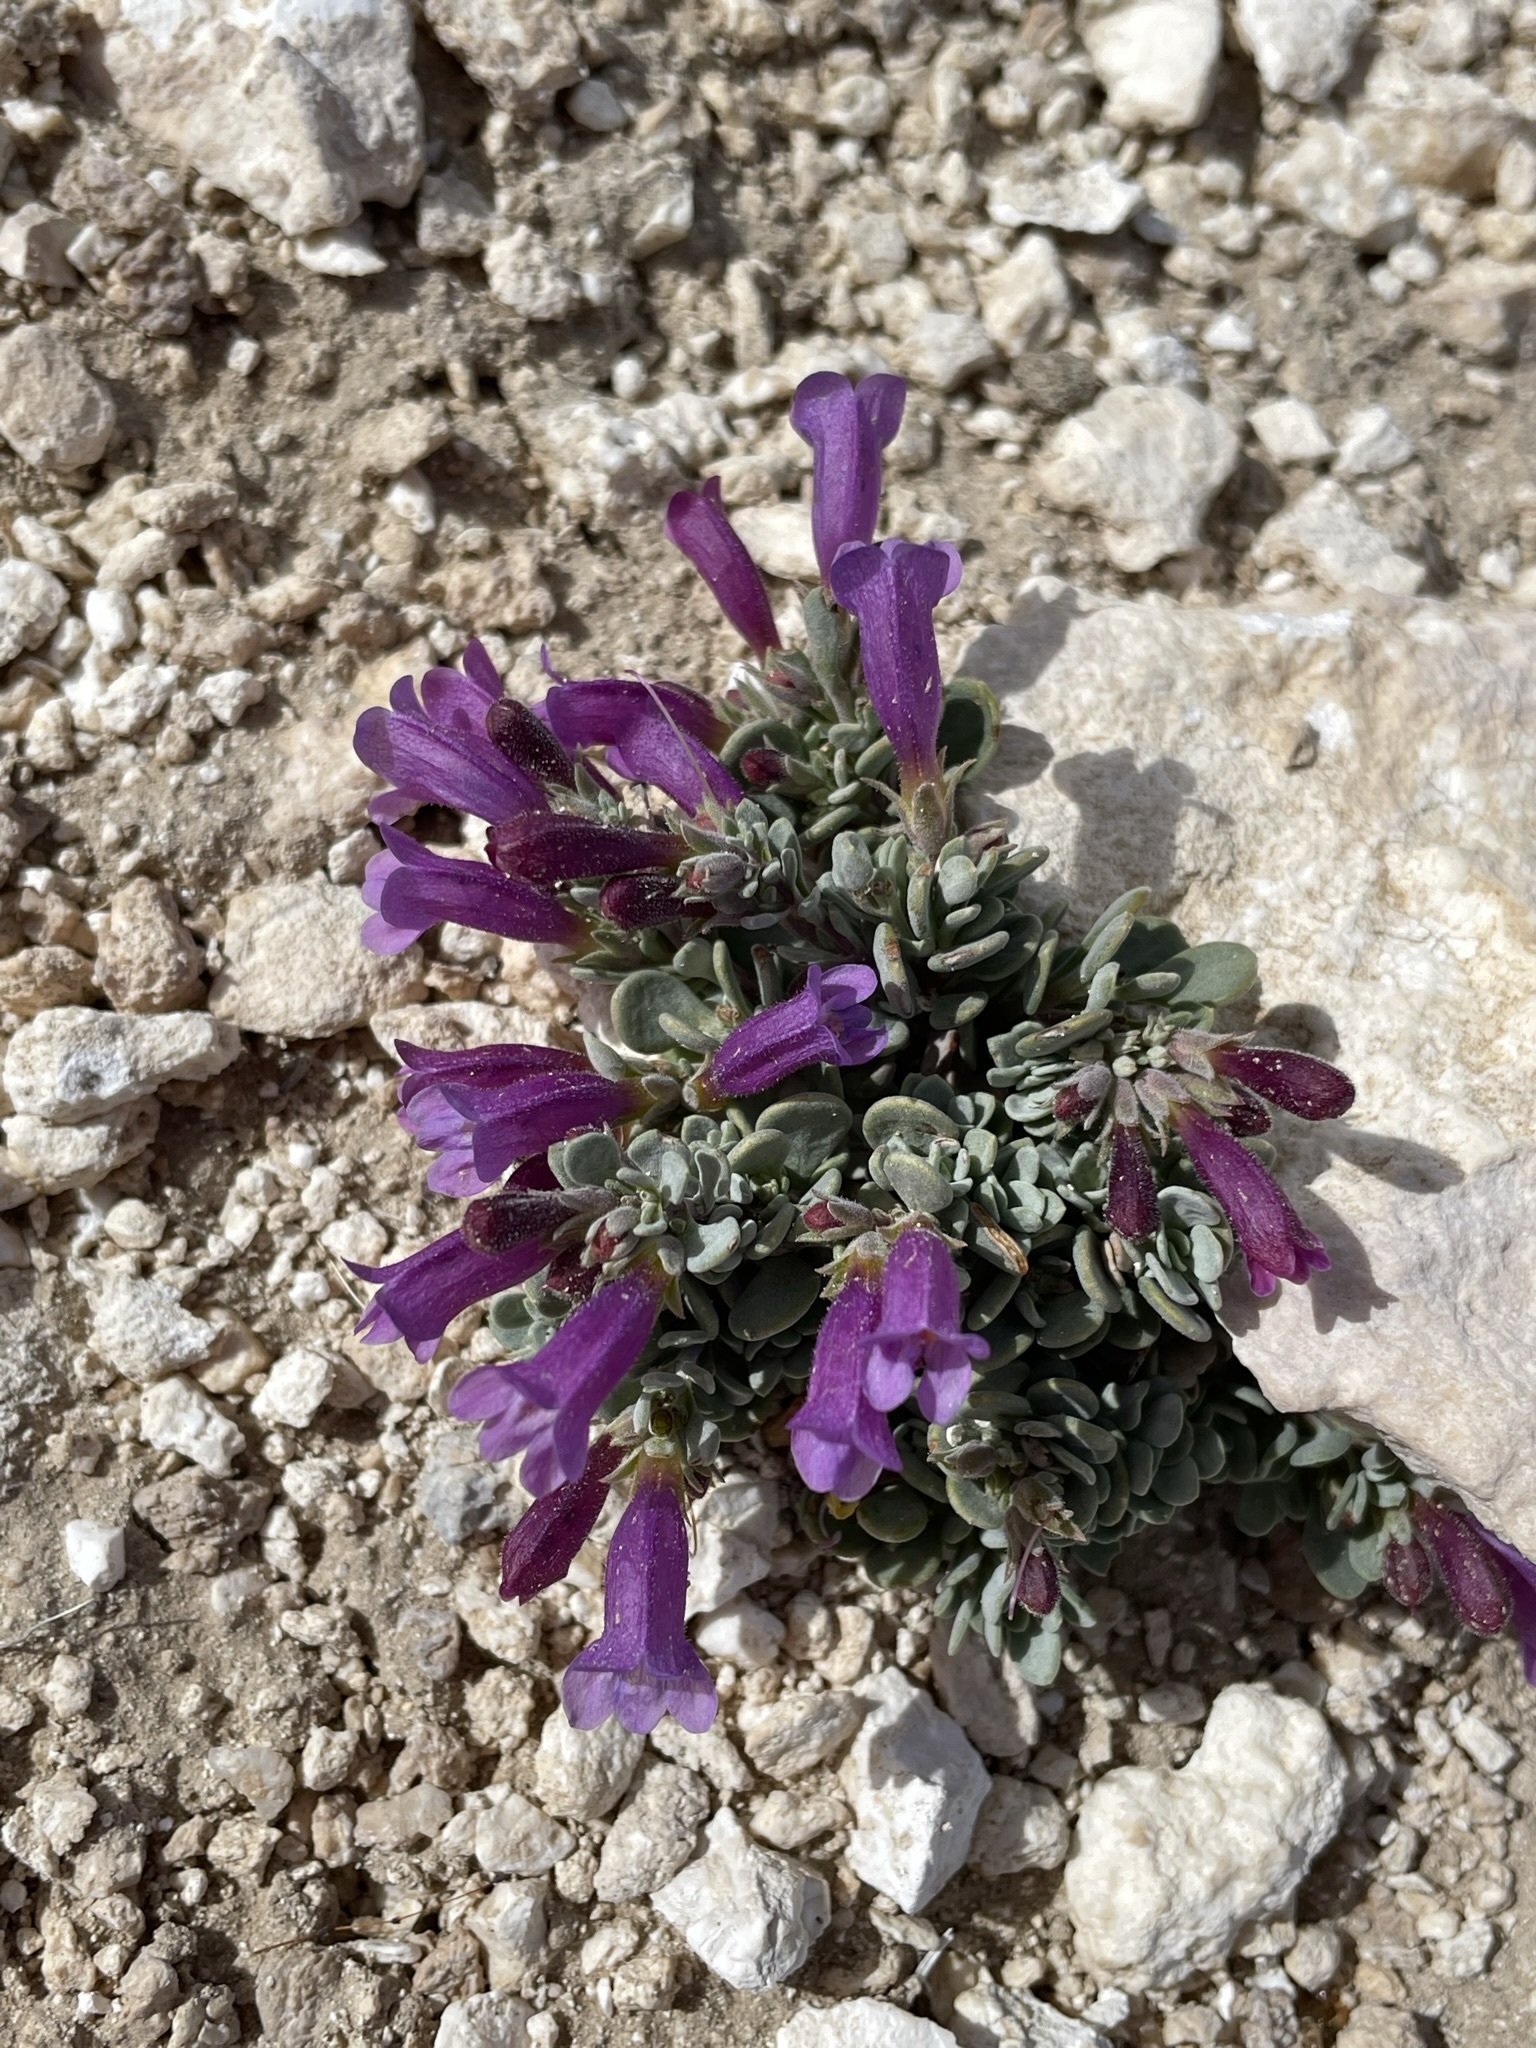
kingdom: Plantae
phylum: Tracheophyta
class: Magnoliopsida
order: Lamiales
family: Plantaginaceae
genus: Penstemon
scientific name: Penstemon thompsoniae
